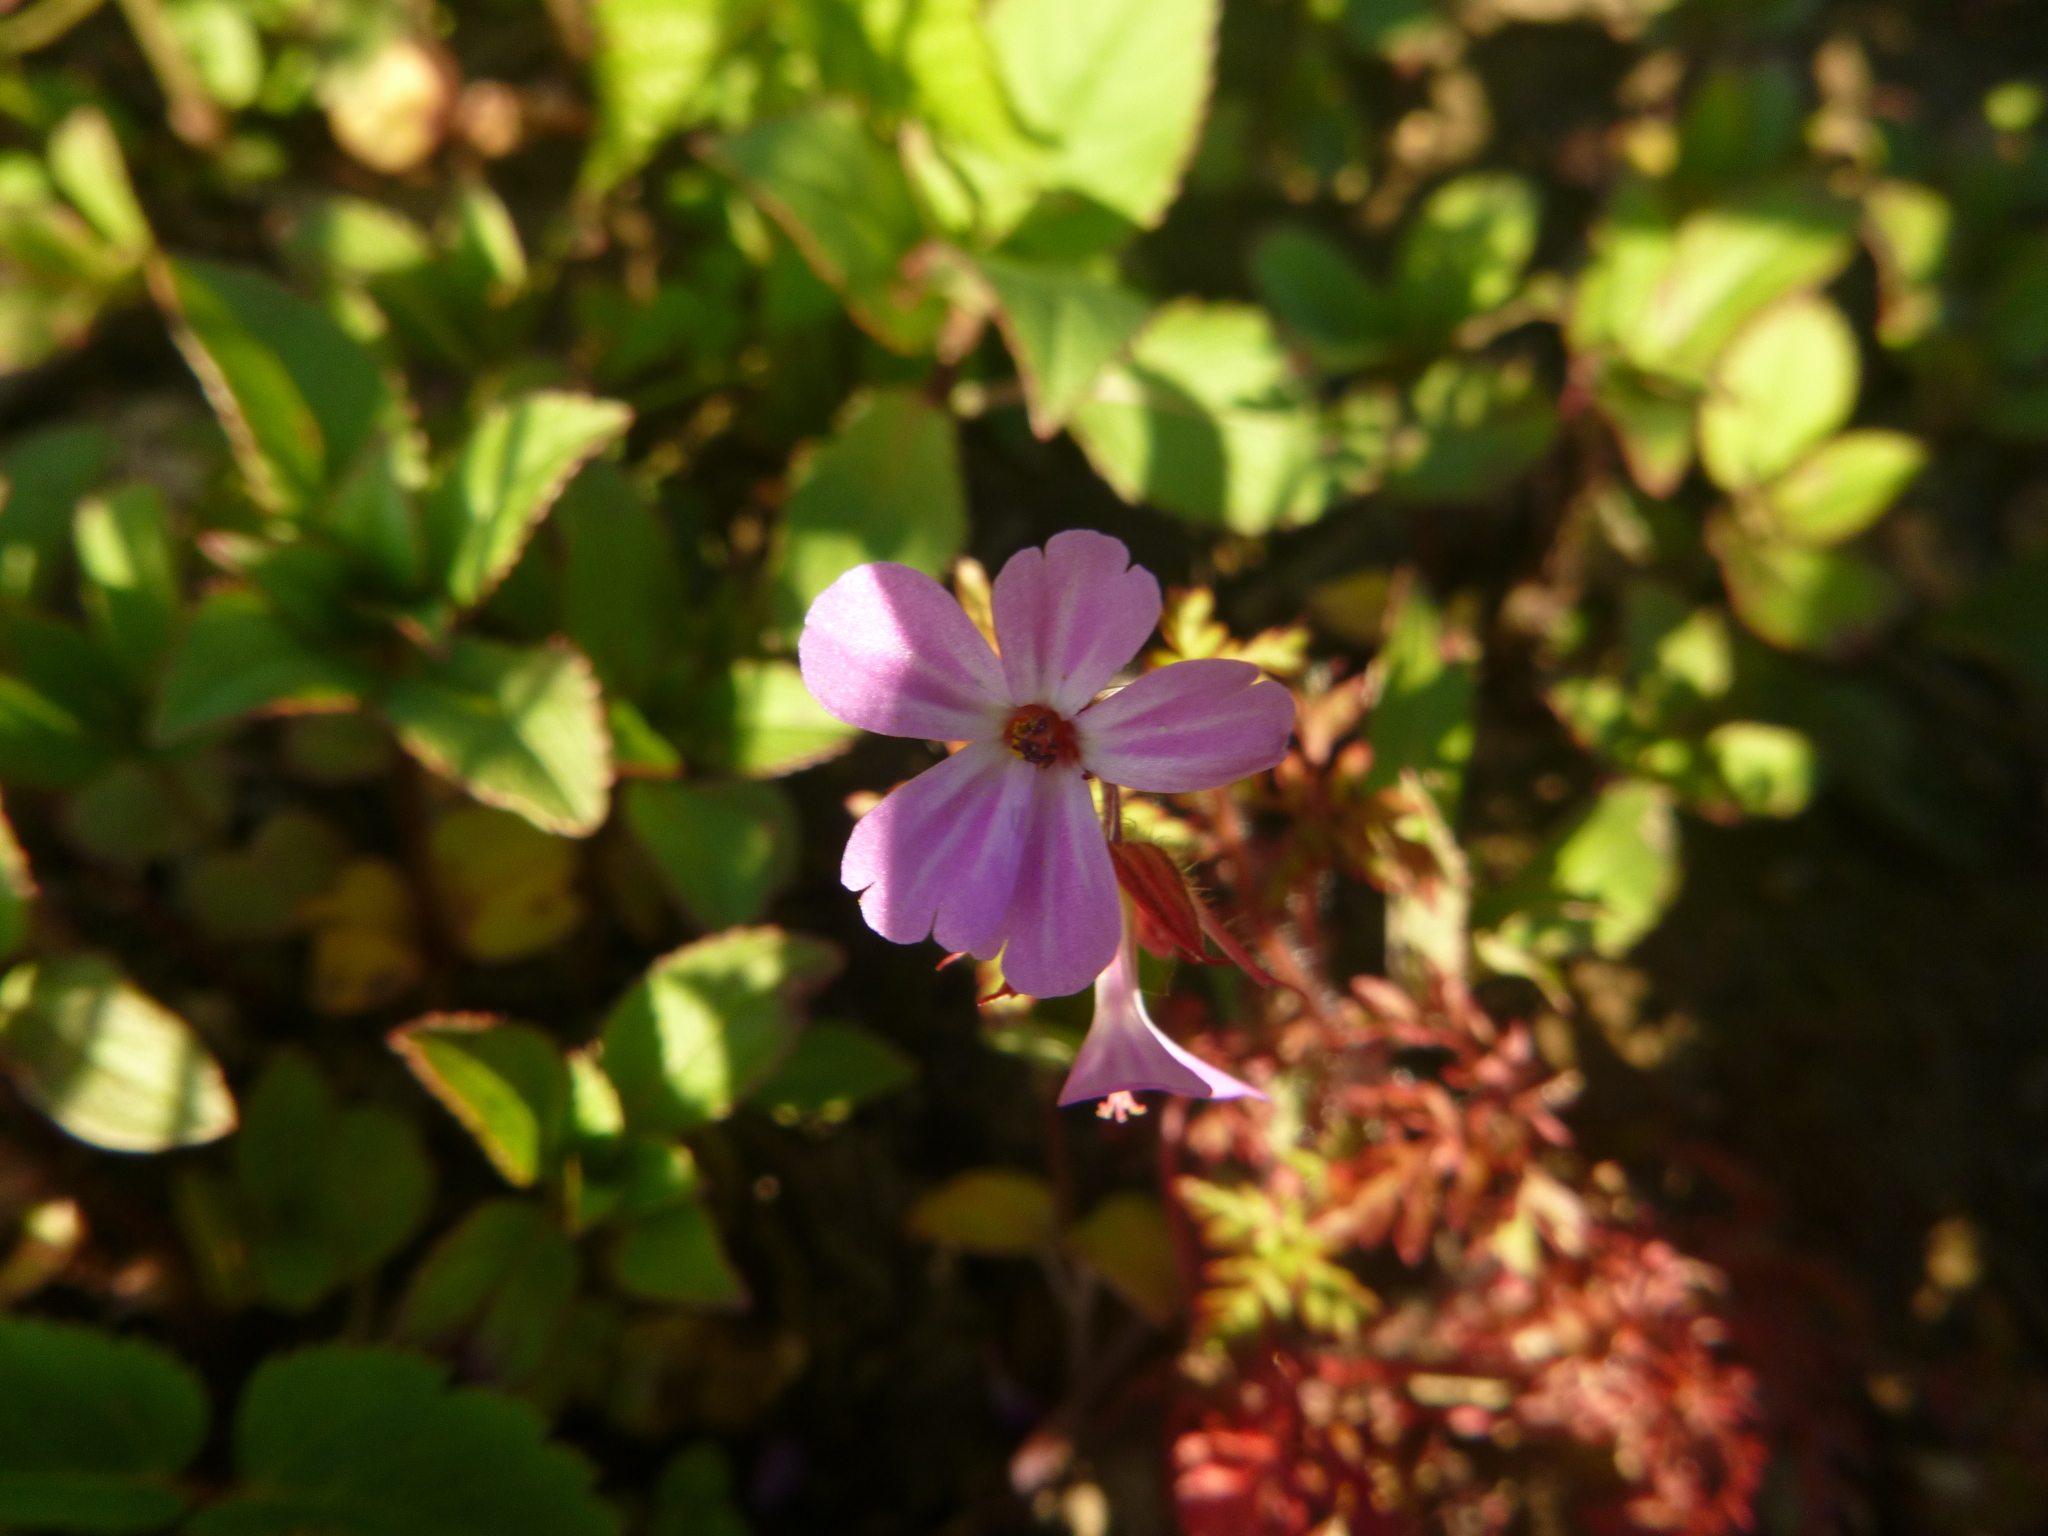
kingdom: Plantae
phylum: Tracheophyta
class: Magnoliopsida
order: Geraniales
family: Geraniaceae
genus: Geranium
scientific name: Geranium robertianum
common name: Herb-robert
